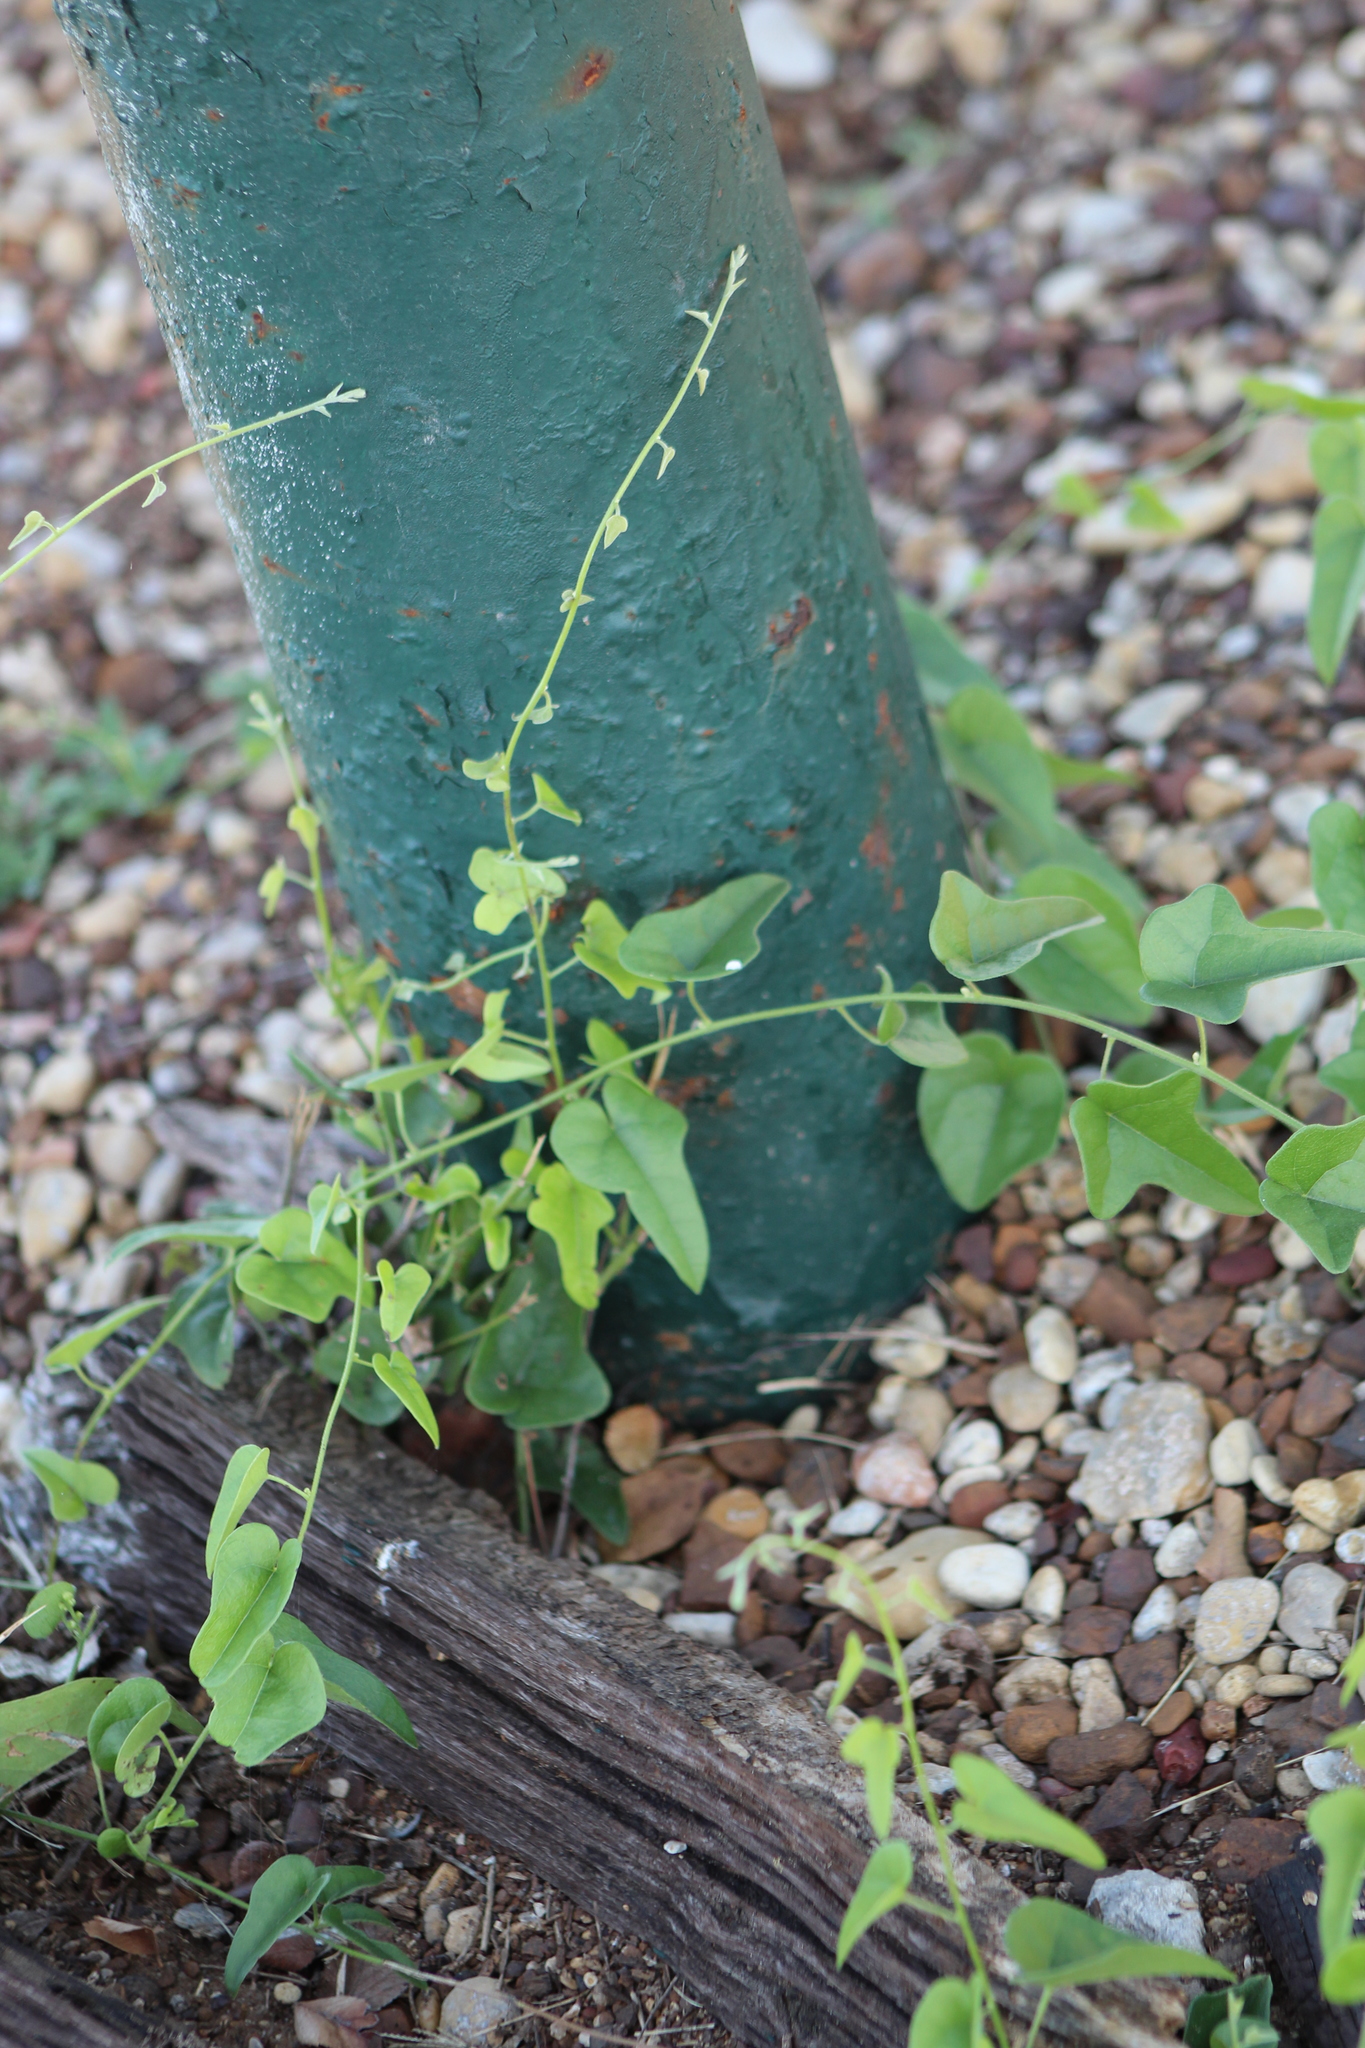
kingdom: Plantae
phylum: Tracheophyta
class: Magnoliopsida
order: Ranunculales
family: Menispermaceae
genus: Cocculus
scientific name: Cocculus carolinus
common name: Carolina moonseed
